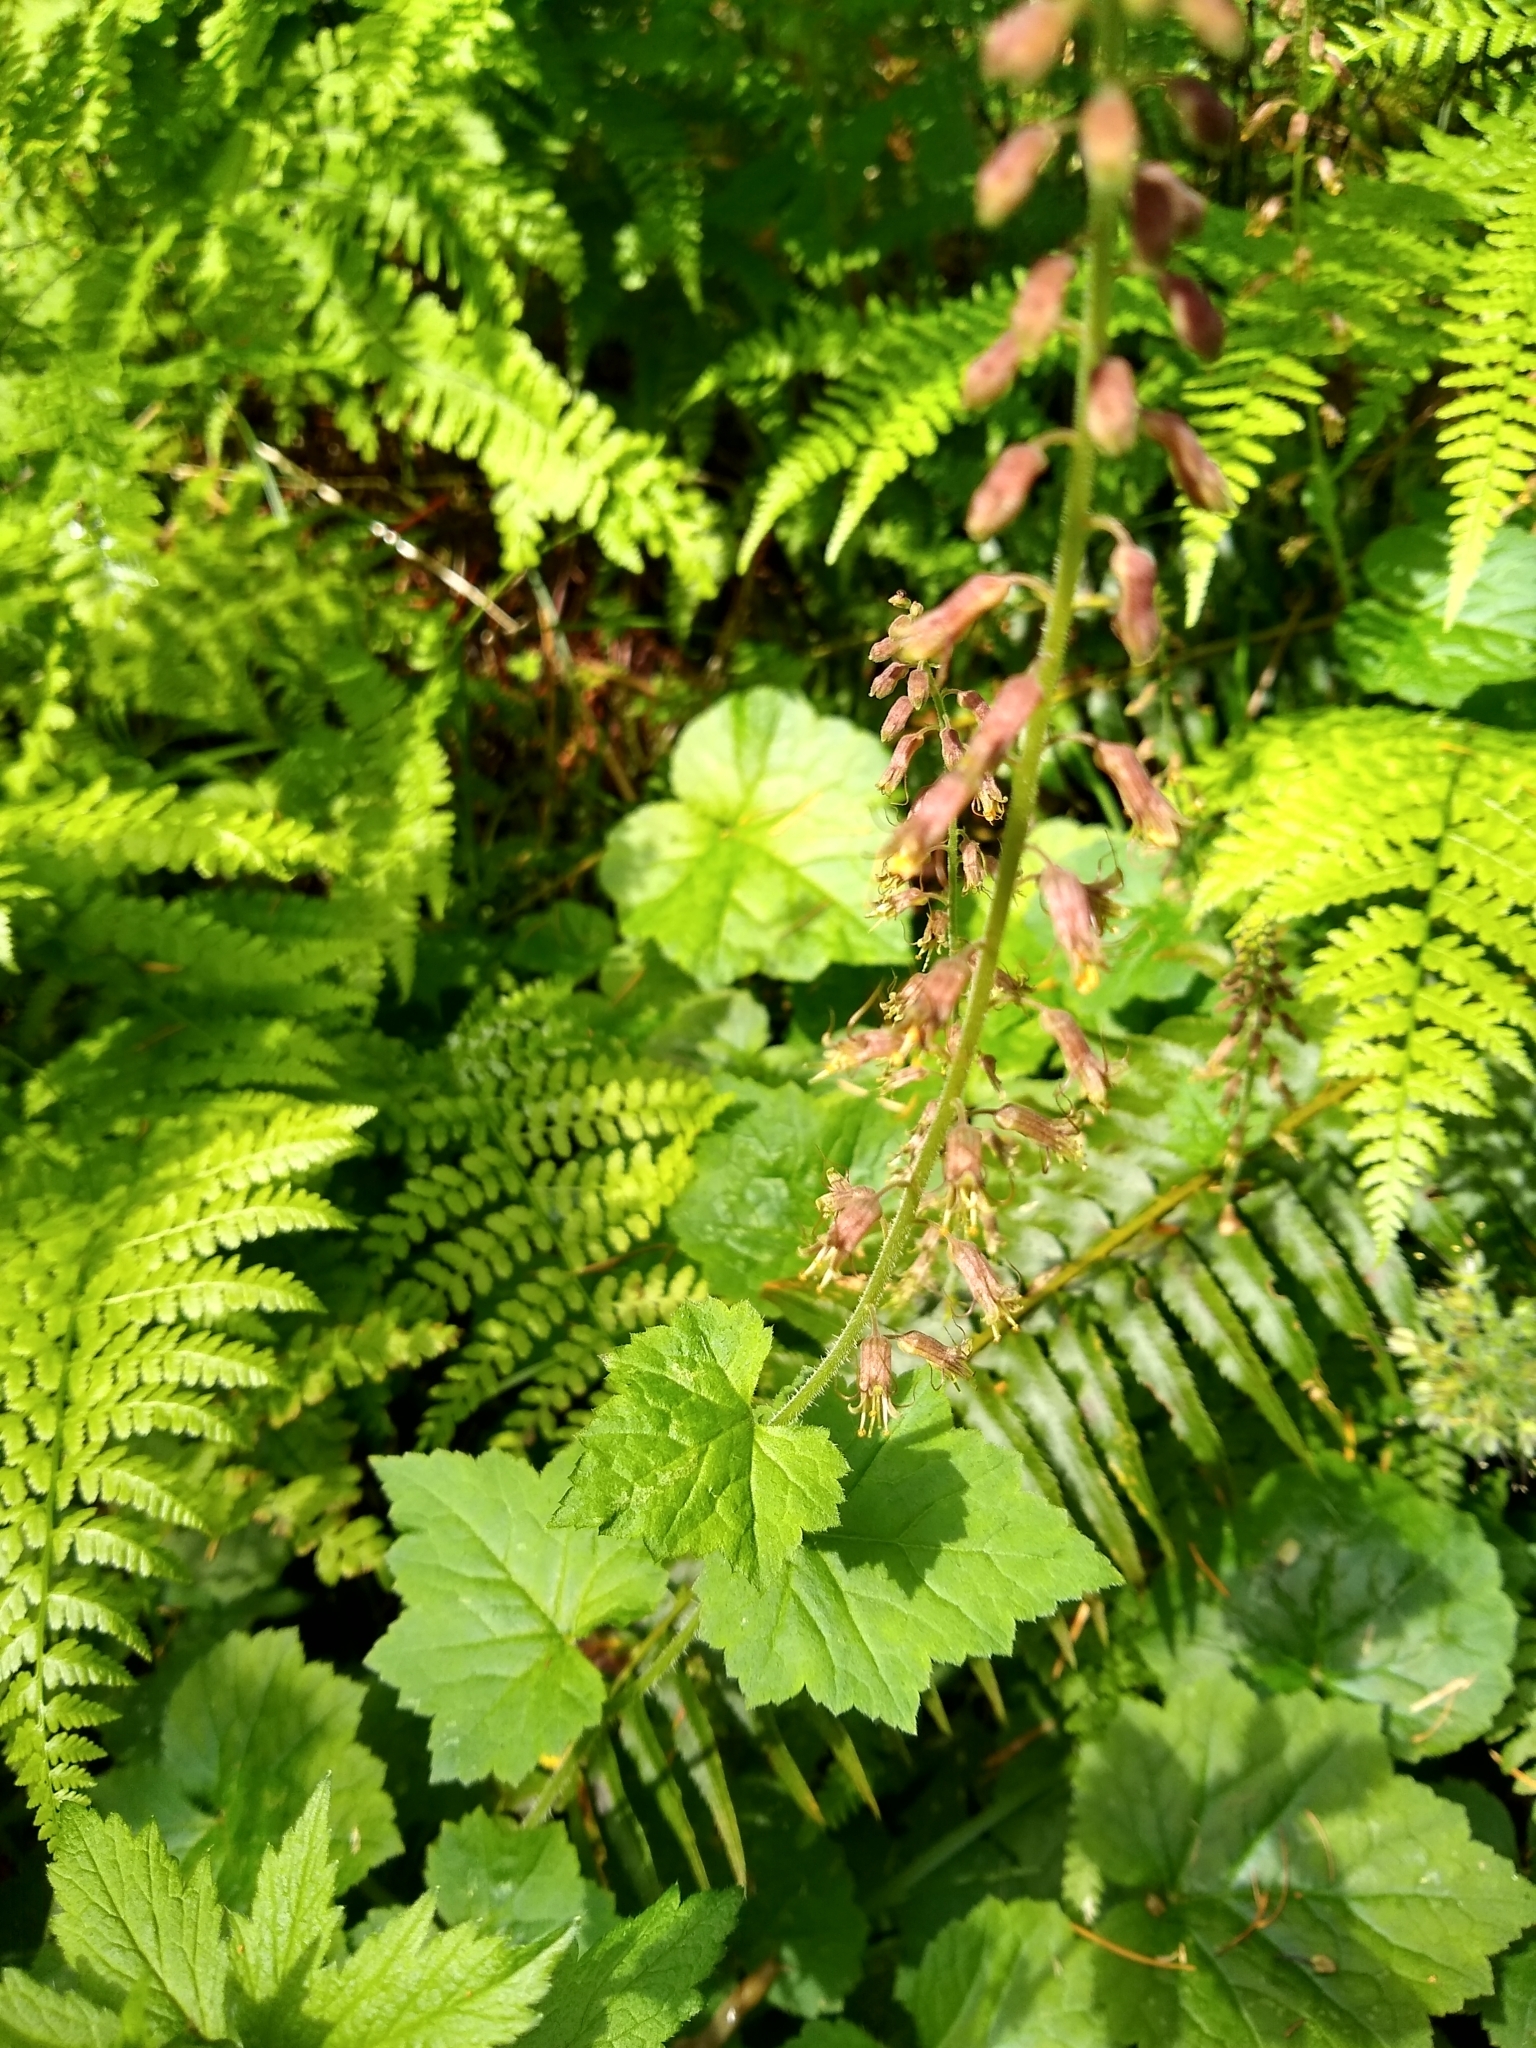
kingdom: Plantae
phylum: Tracheophyta
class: Magnoliopsida
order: Saxifragales
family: Saxifragaceae
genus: Tolmiea
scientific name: Tolmiea menziesii
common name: Pick-a-back-plant
